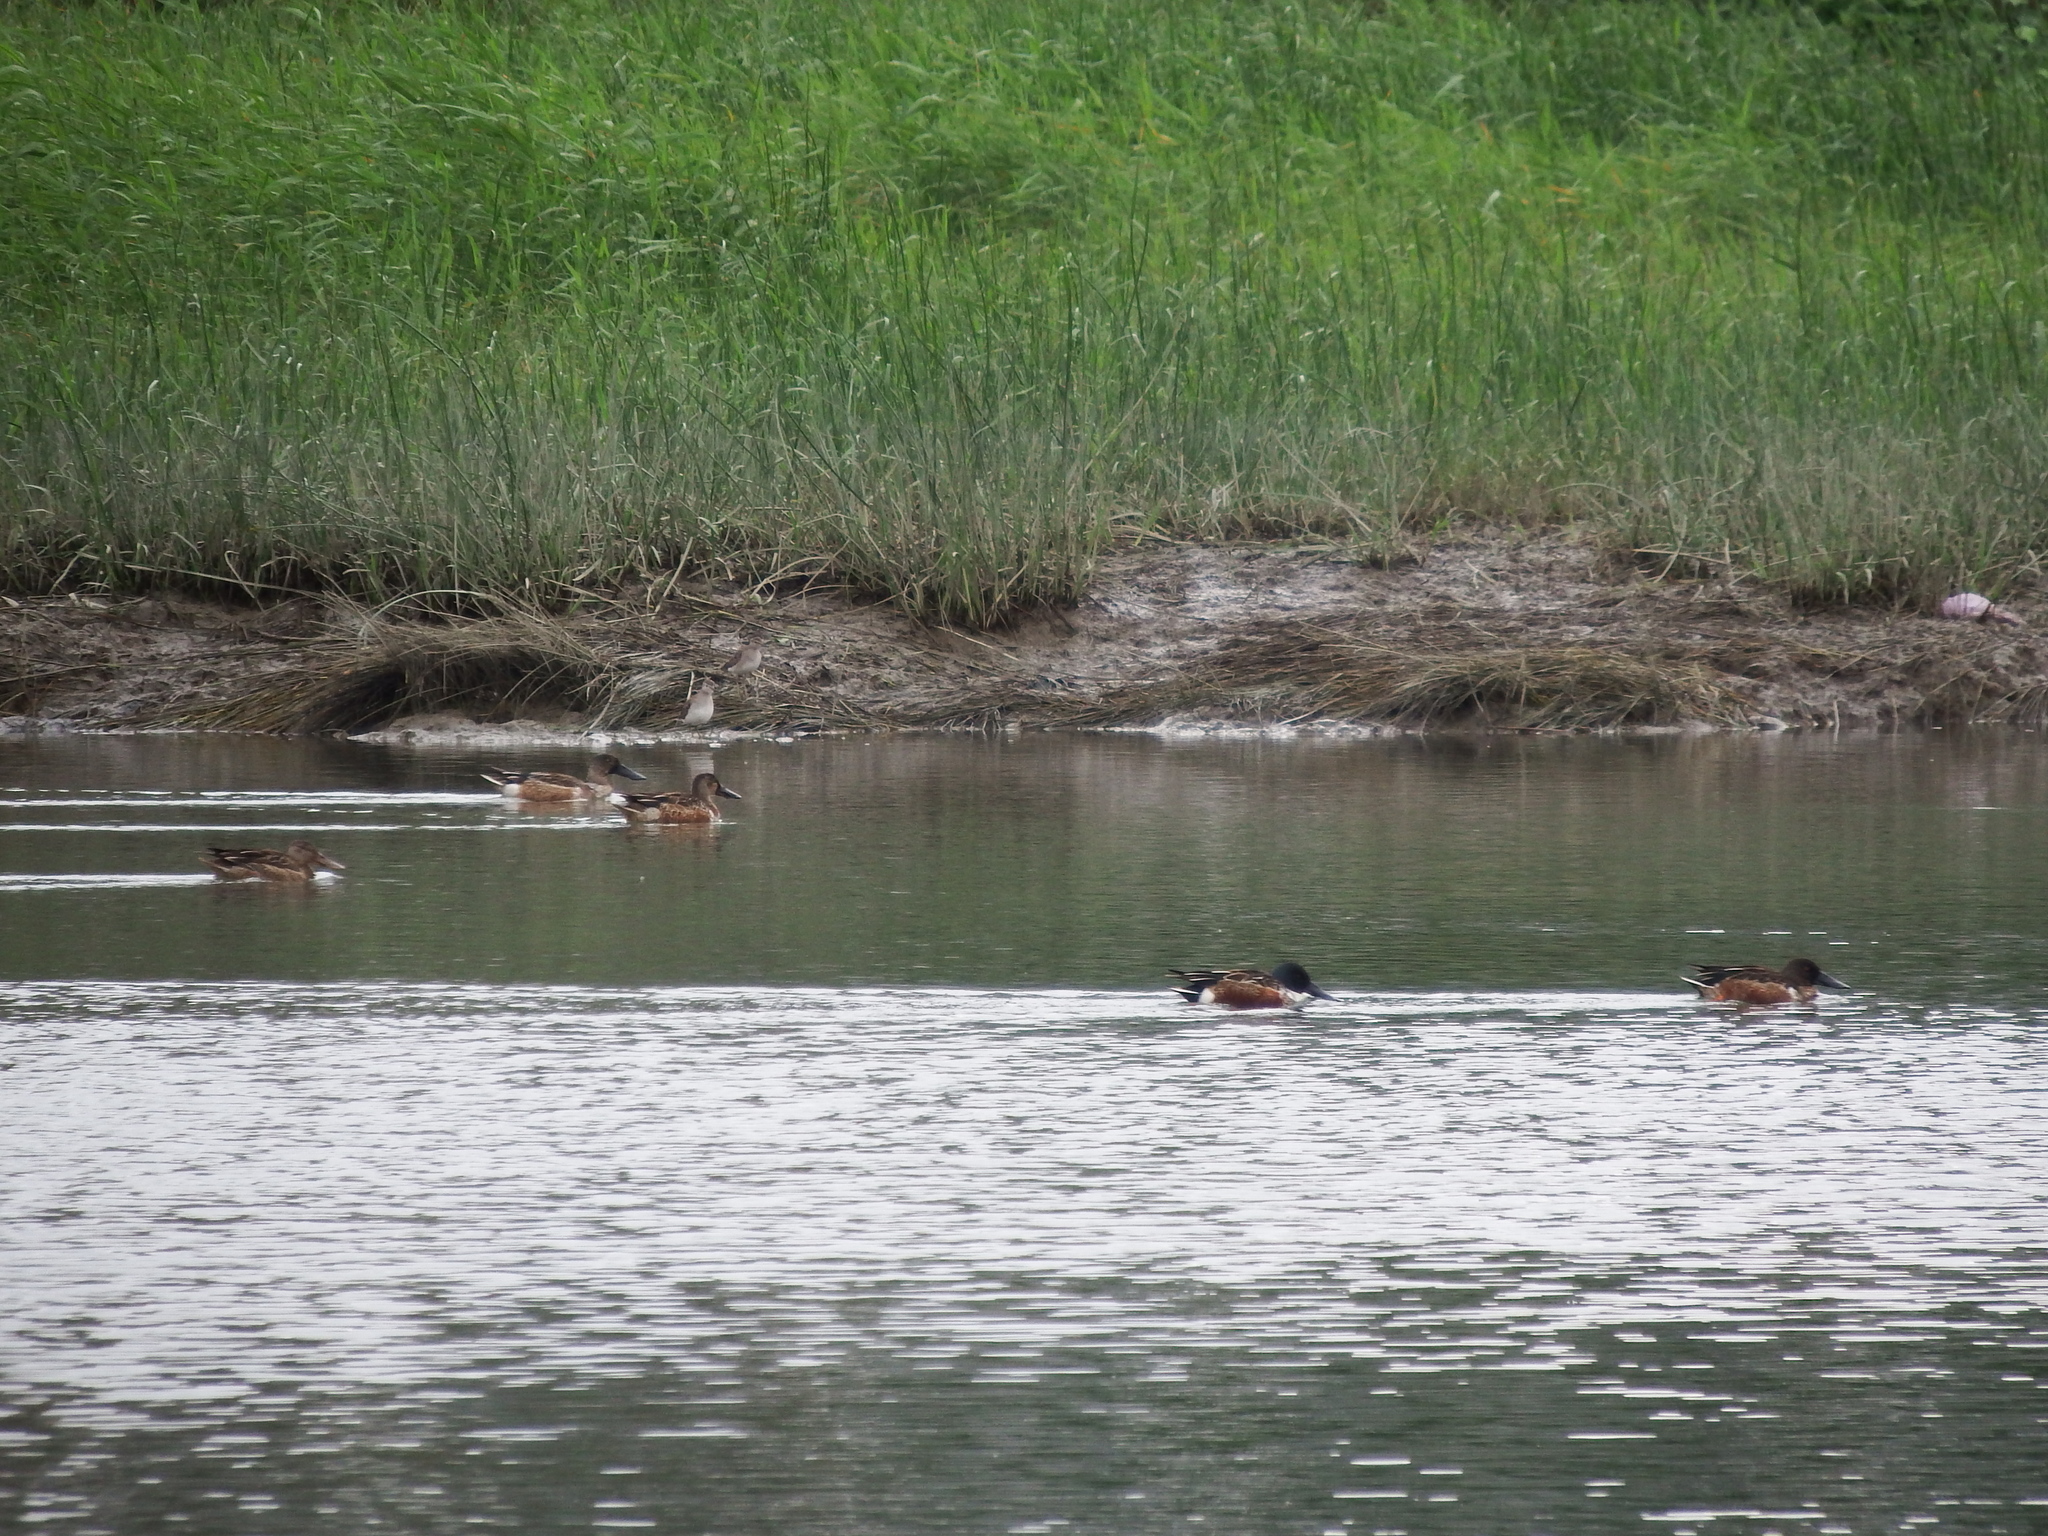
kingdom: Animalia
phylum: Chordata
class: Aves
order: Anseriformes
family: Anatidae
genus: Spatula
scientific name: Spatula clypeata
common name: Northern shoveler
